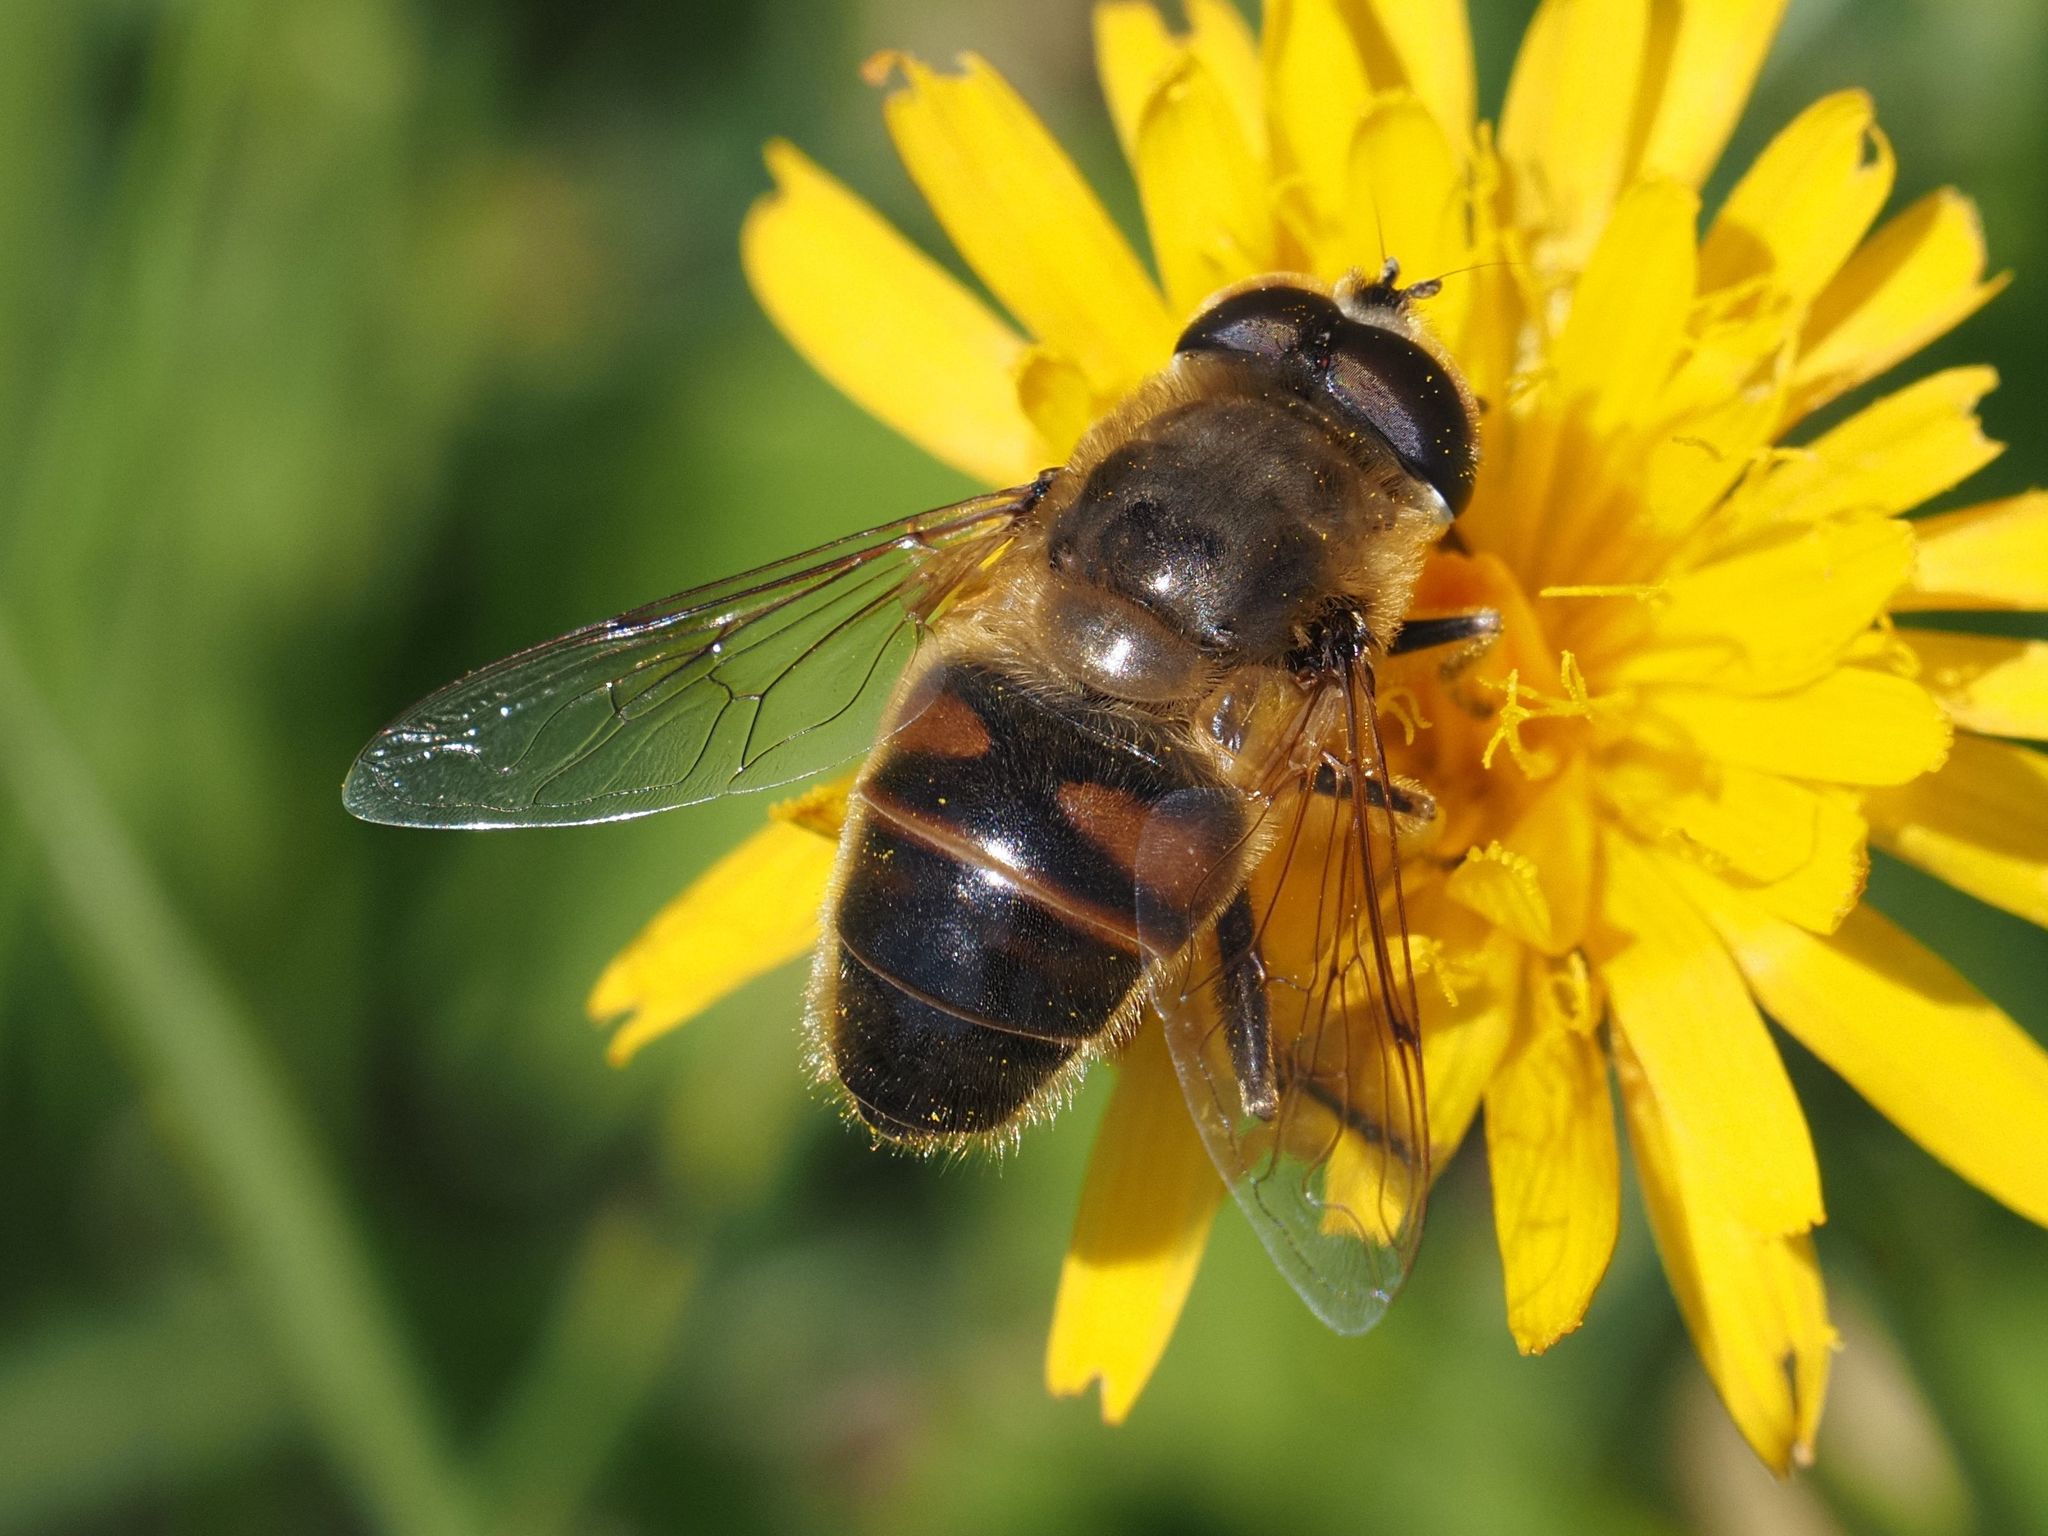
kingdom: Animalia
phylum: Arthropoda
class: Insecta
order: Diptera
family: Syrphidae
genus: Eristalis
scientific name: Eristalis tenax
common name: Drone fly
